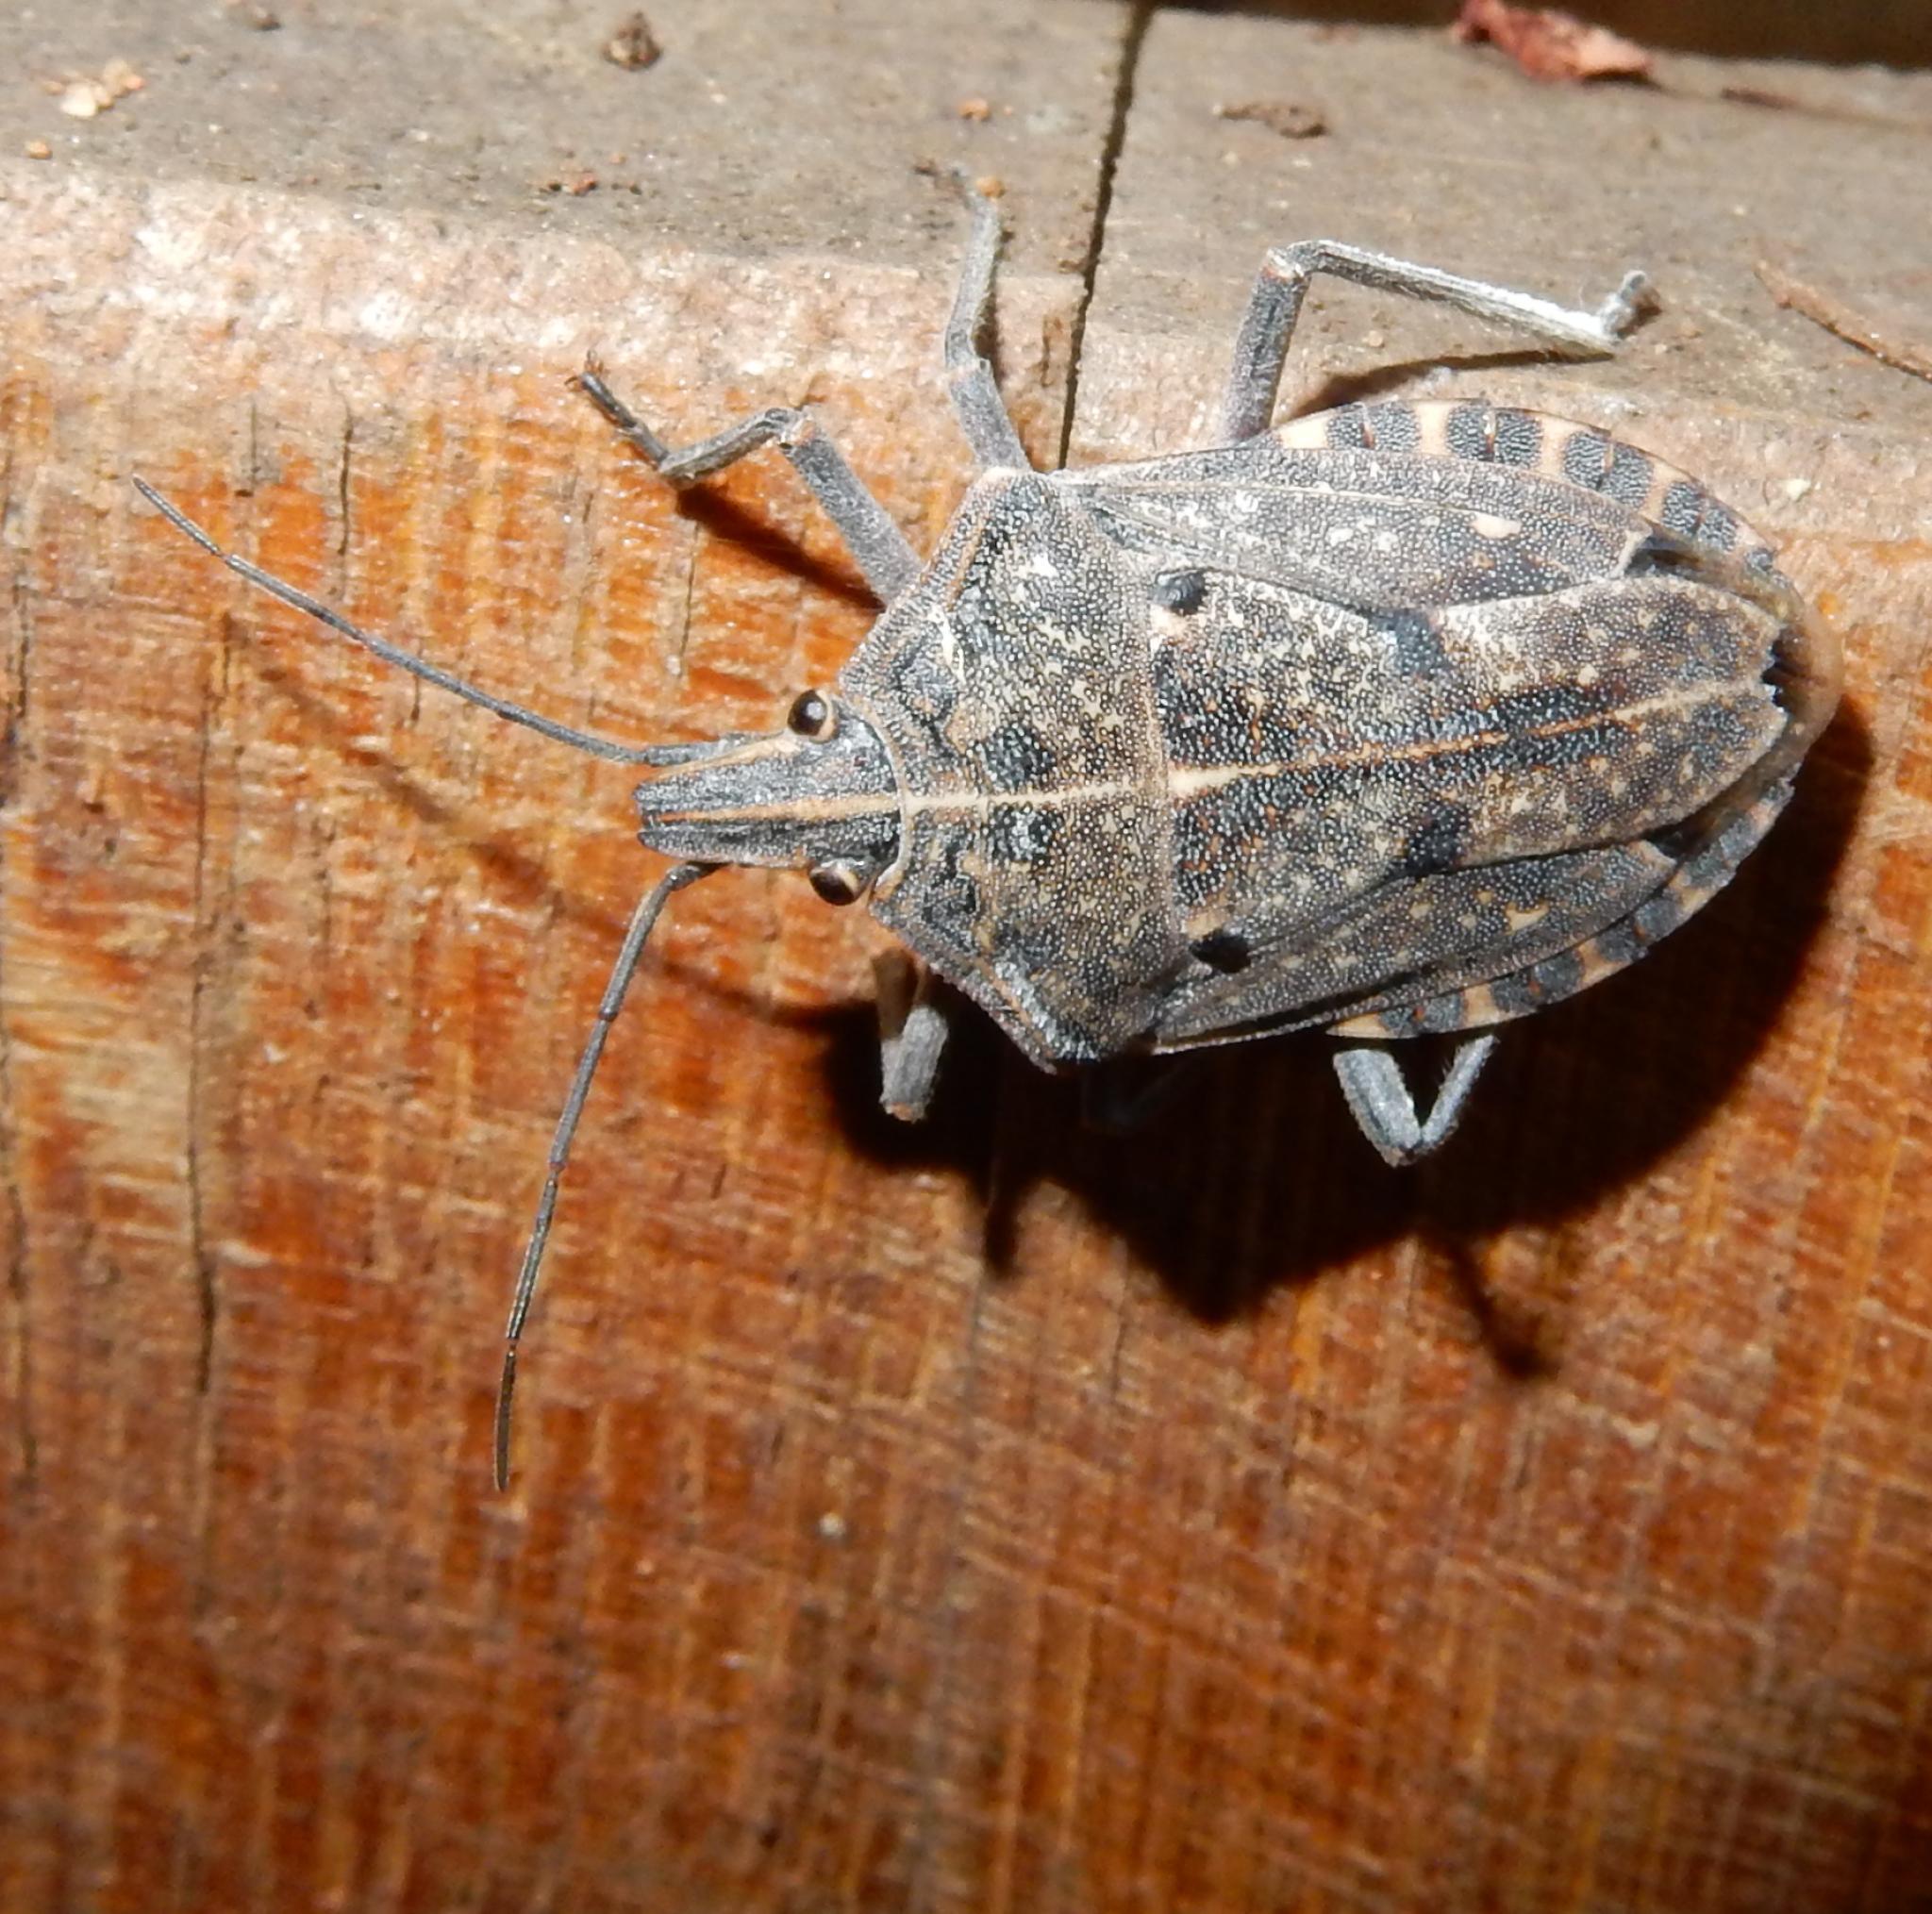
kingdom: Animalia
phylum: Arthropoda
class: Insecta
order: Hemiptera
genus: Peltasticus
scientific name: Peltasticus
